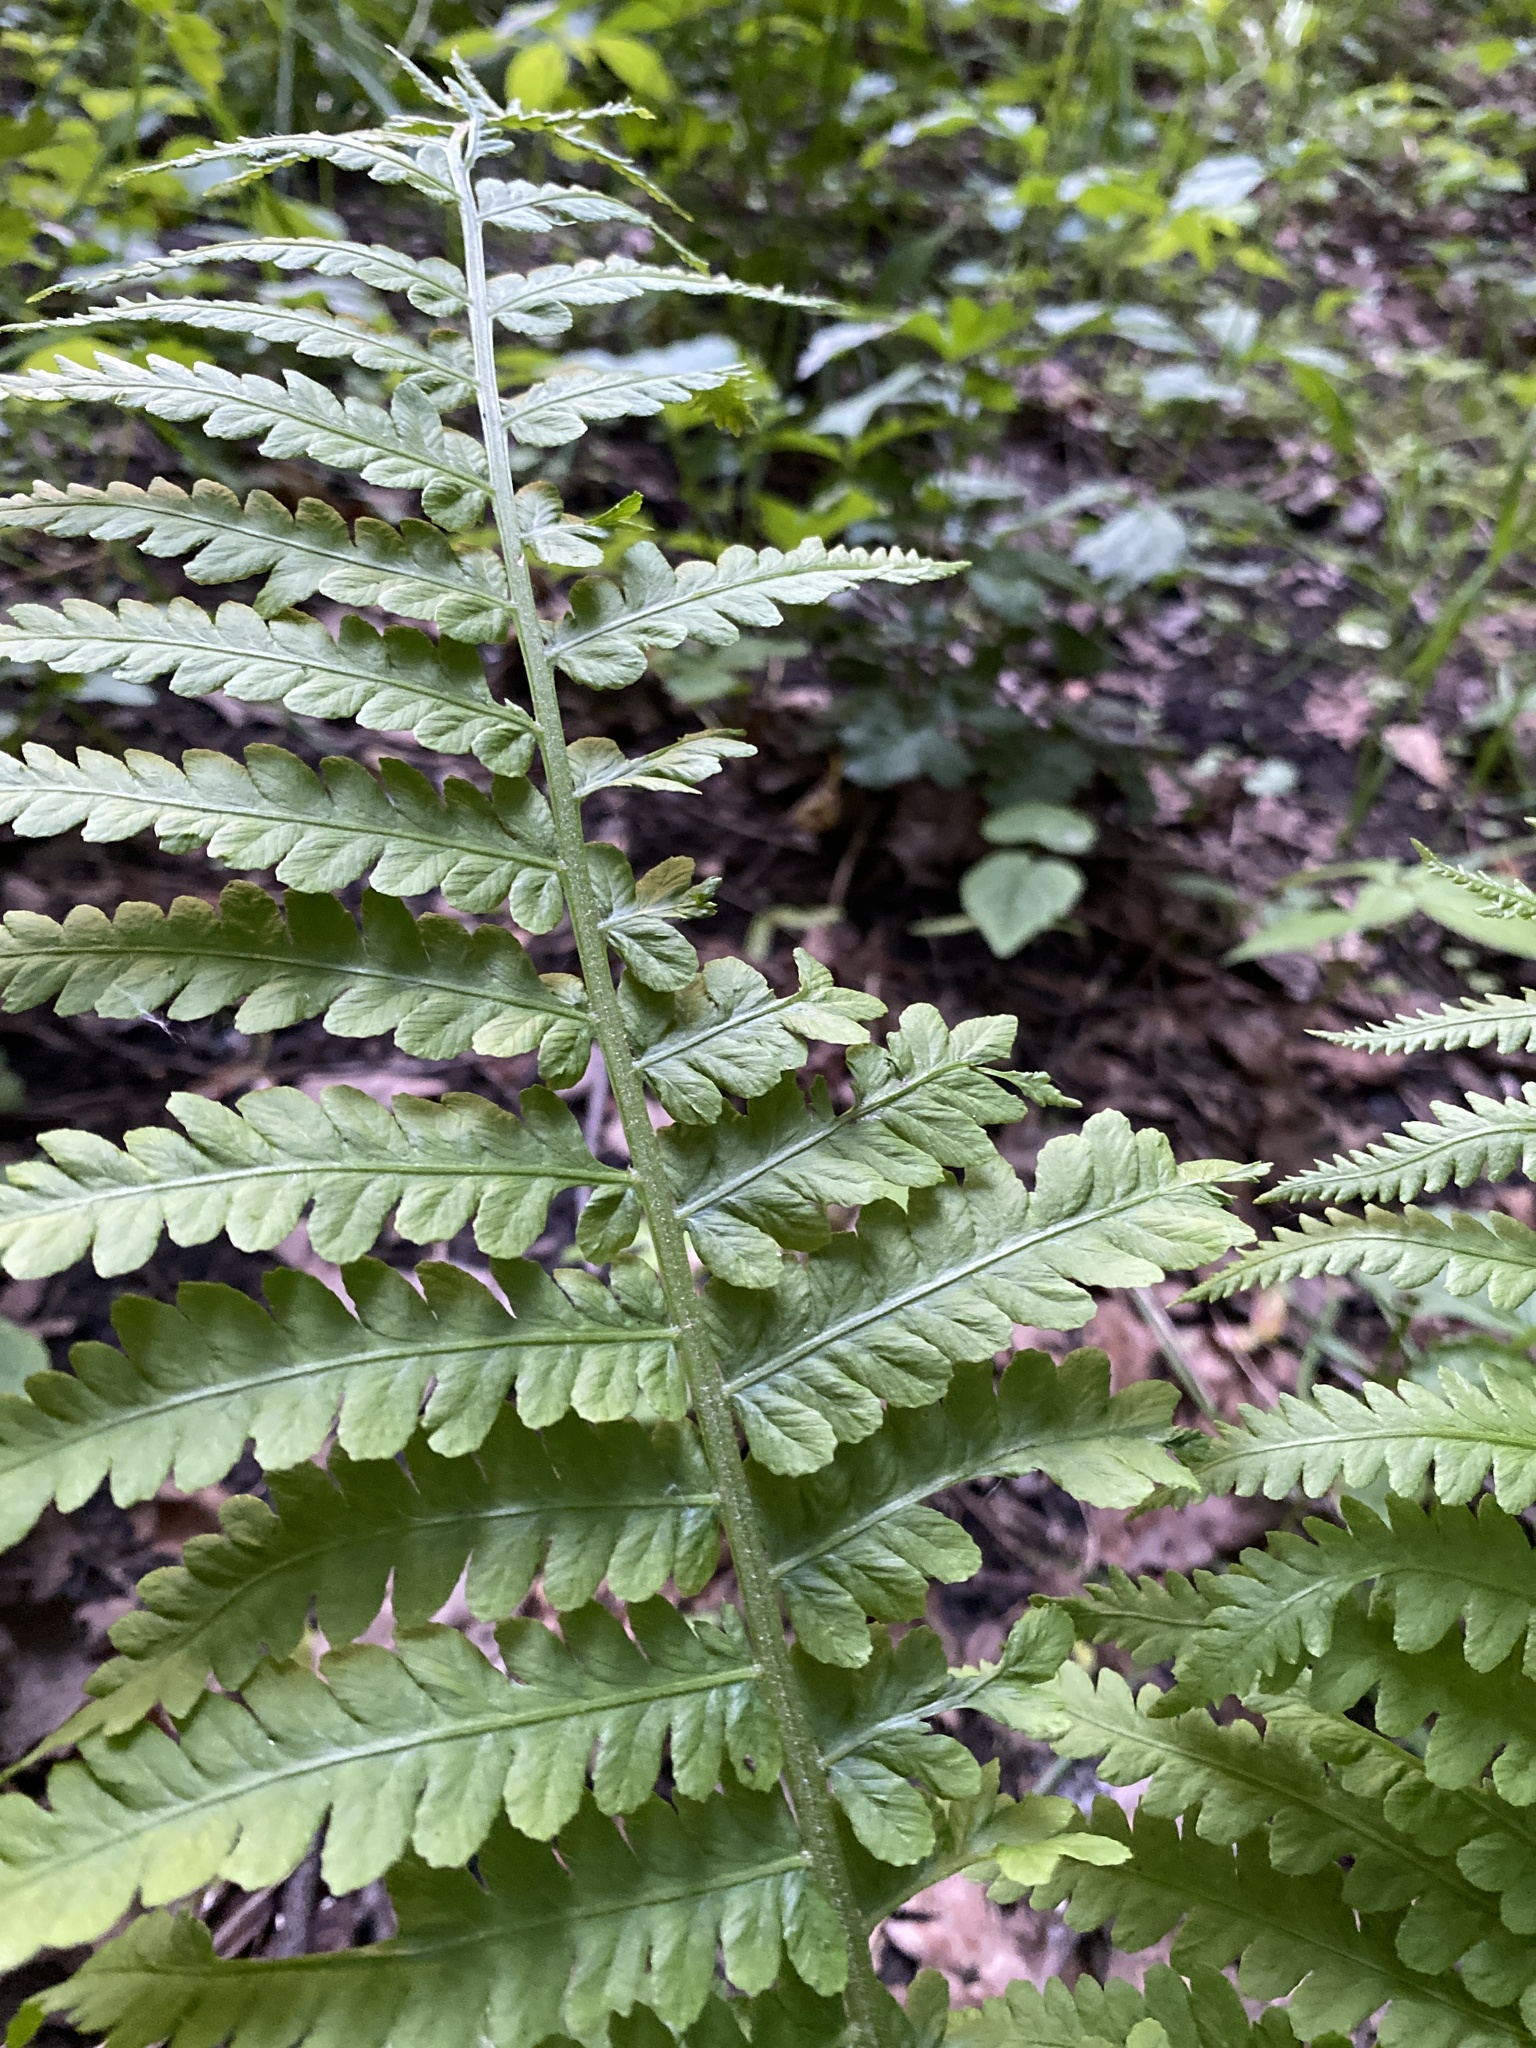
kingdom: Plantae
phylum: Tracheophyta
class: Polypodiopsida
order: Polypodiales
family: Onocleaceae
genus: Matteuccia
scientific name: Matteuccia struthiopteris
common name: Ostrich fern
